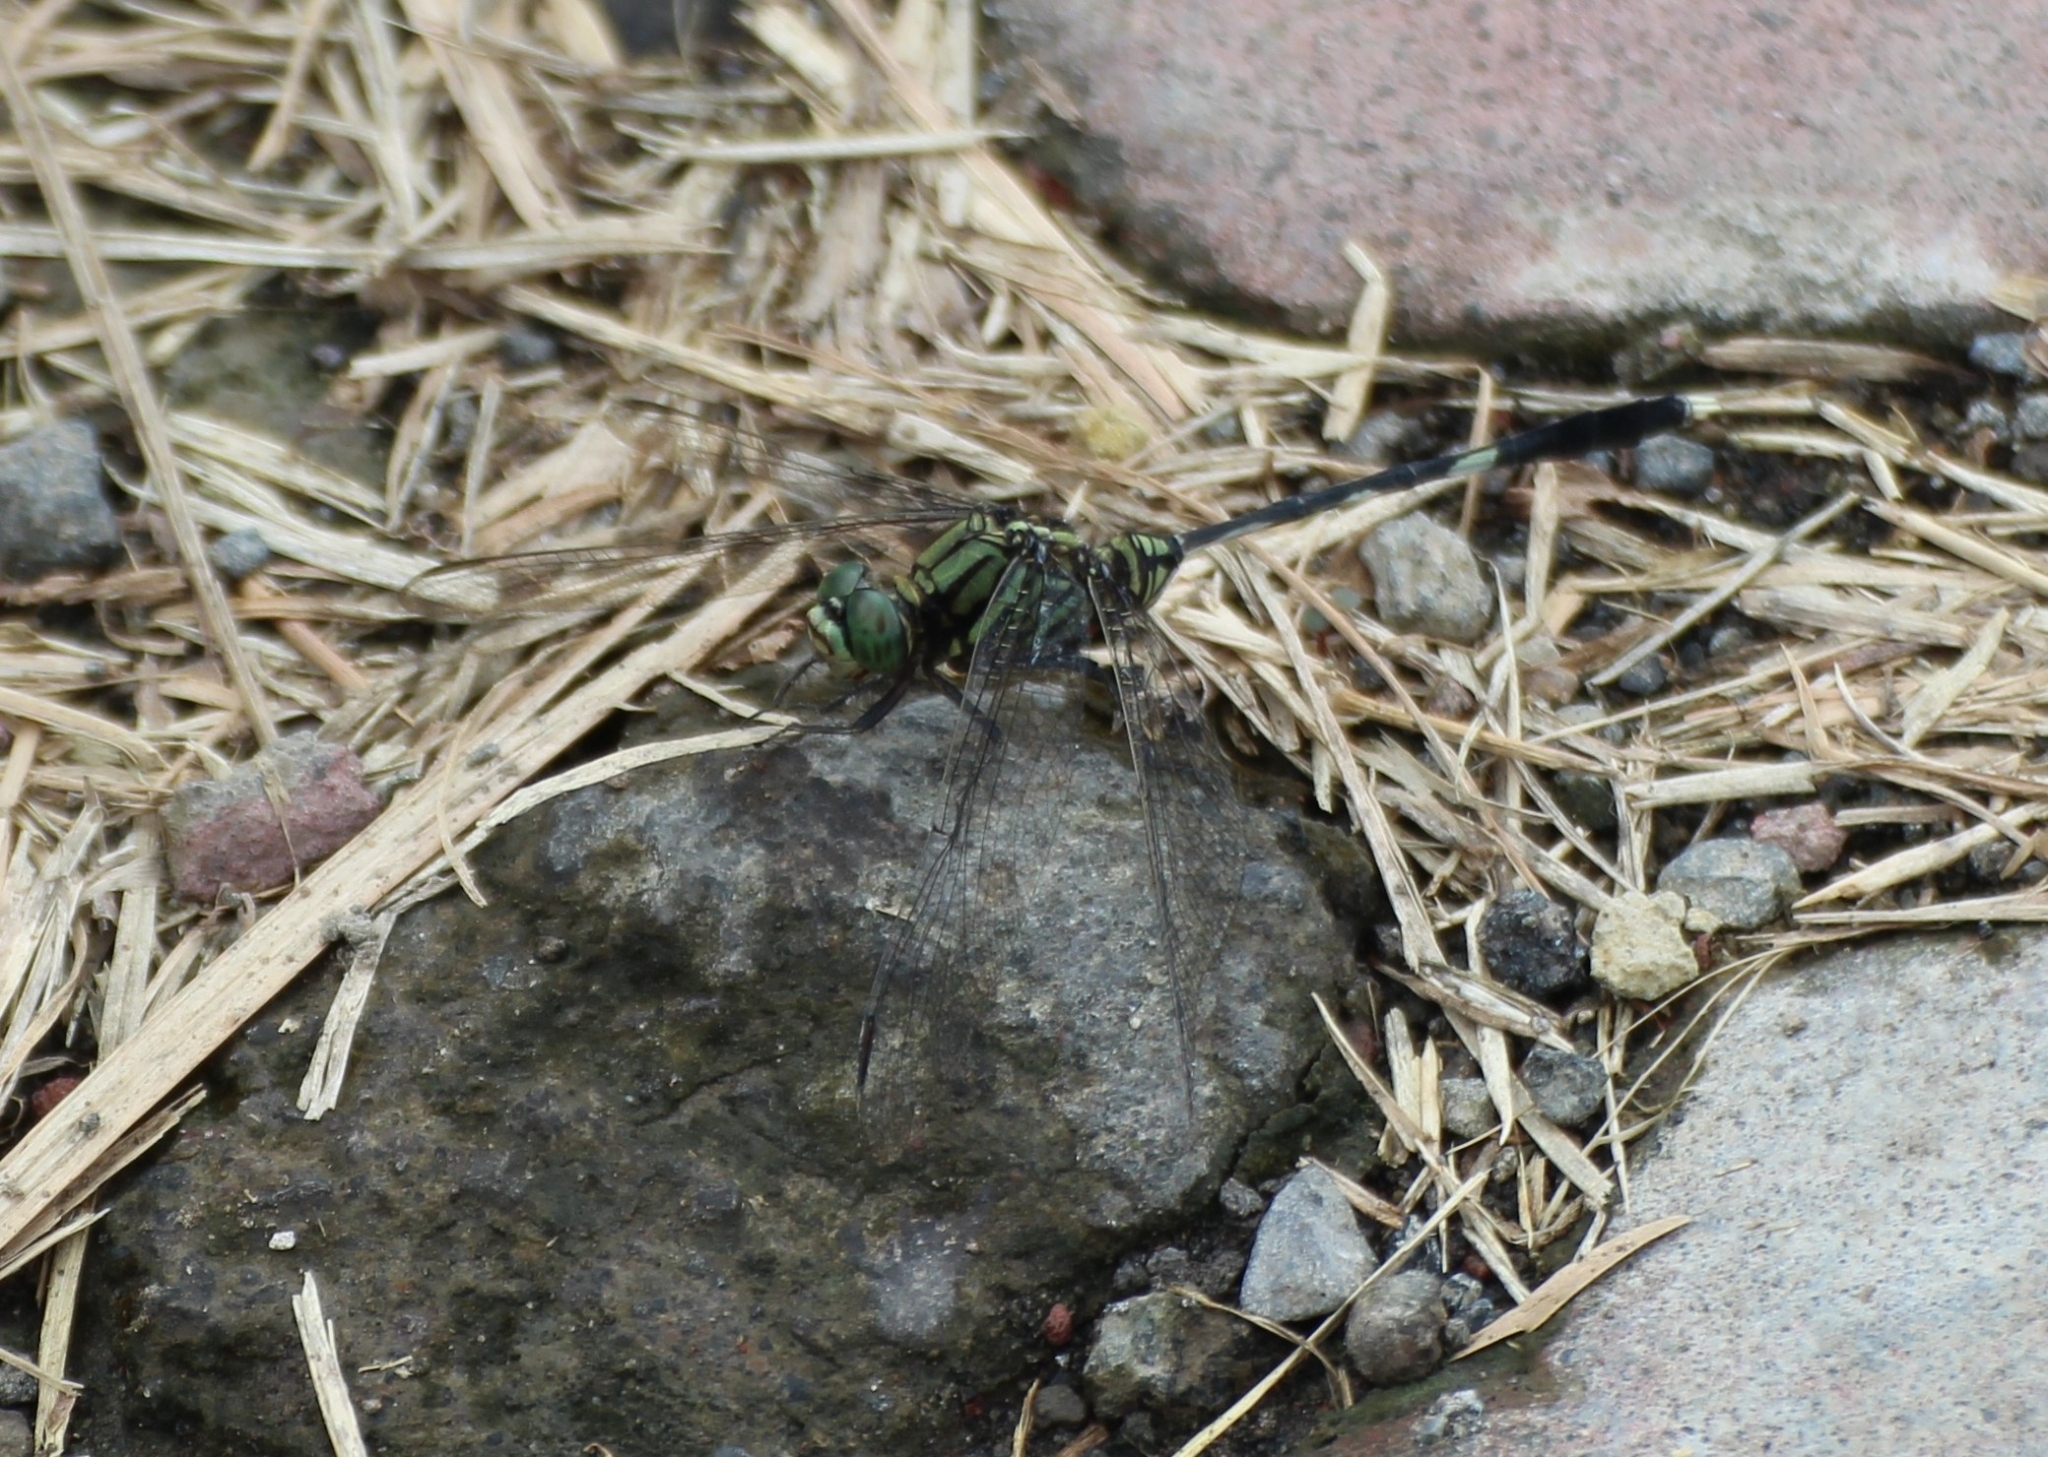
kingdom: Animalia
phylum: Arthropoda
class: Insecta
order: Odonata
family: Libellulidae
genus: Orthetrum
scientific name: Orthetrum sabina
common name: Slender skimmer
